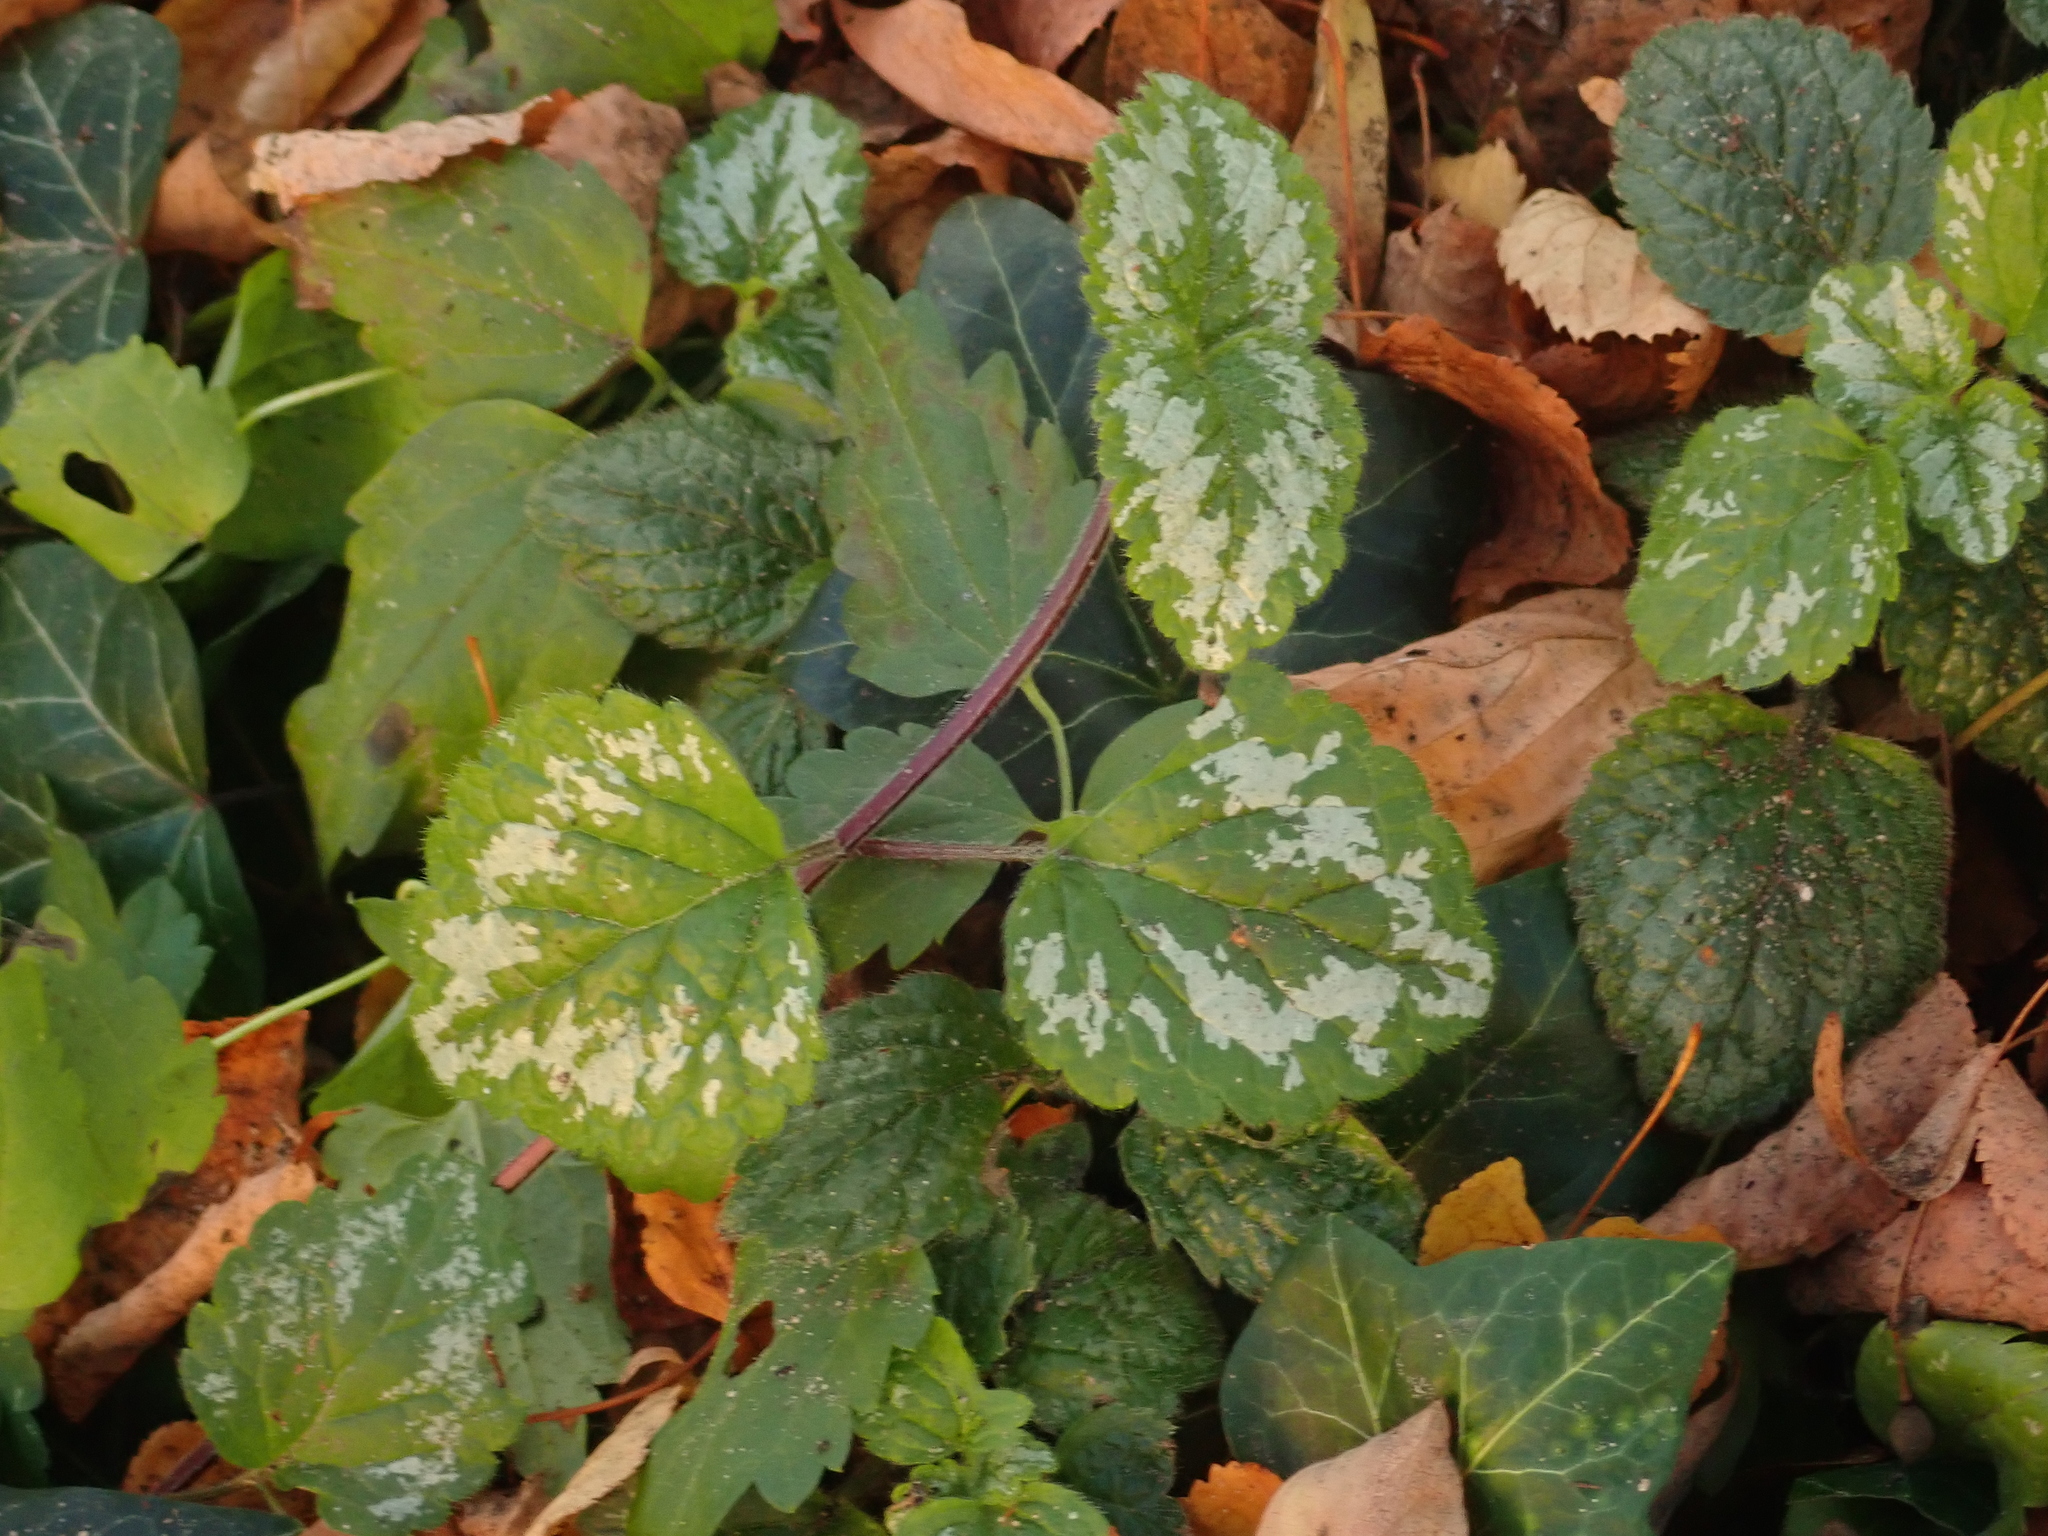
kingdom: Plantae
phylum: Tracheophyta
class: Magnoliopsida
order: Lamiales
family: Lamiaceae
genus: Lamium
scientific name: Lamium galeobdolon
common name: Yellow archangel
